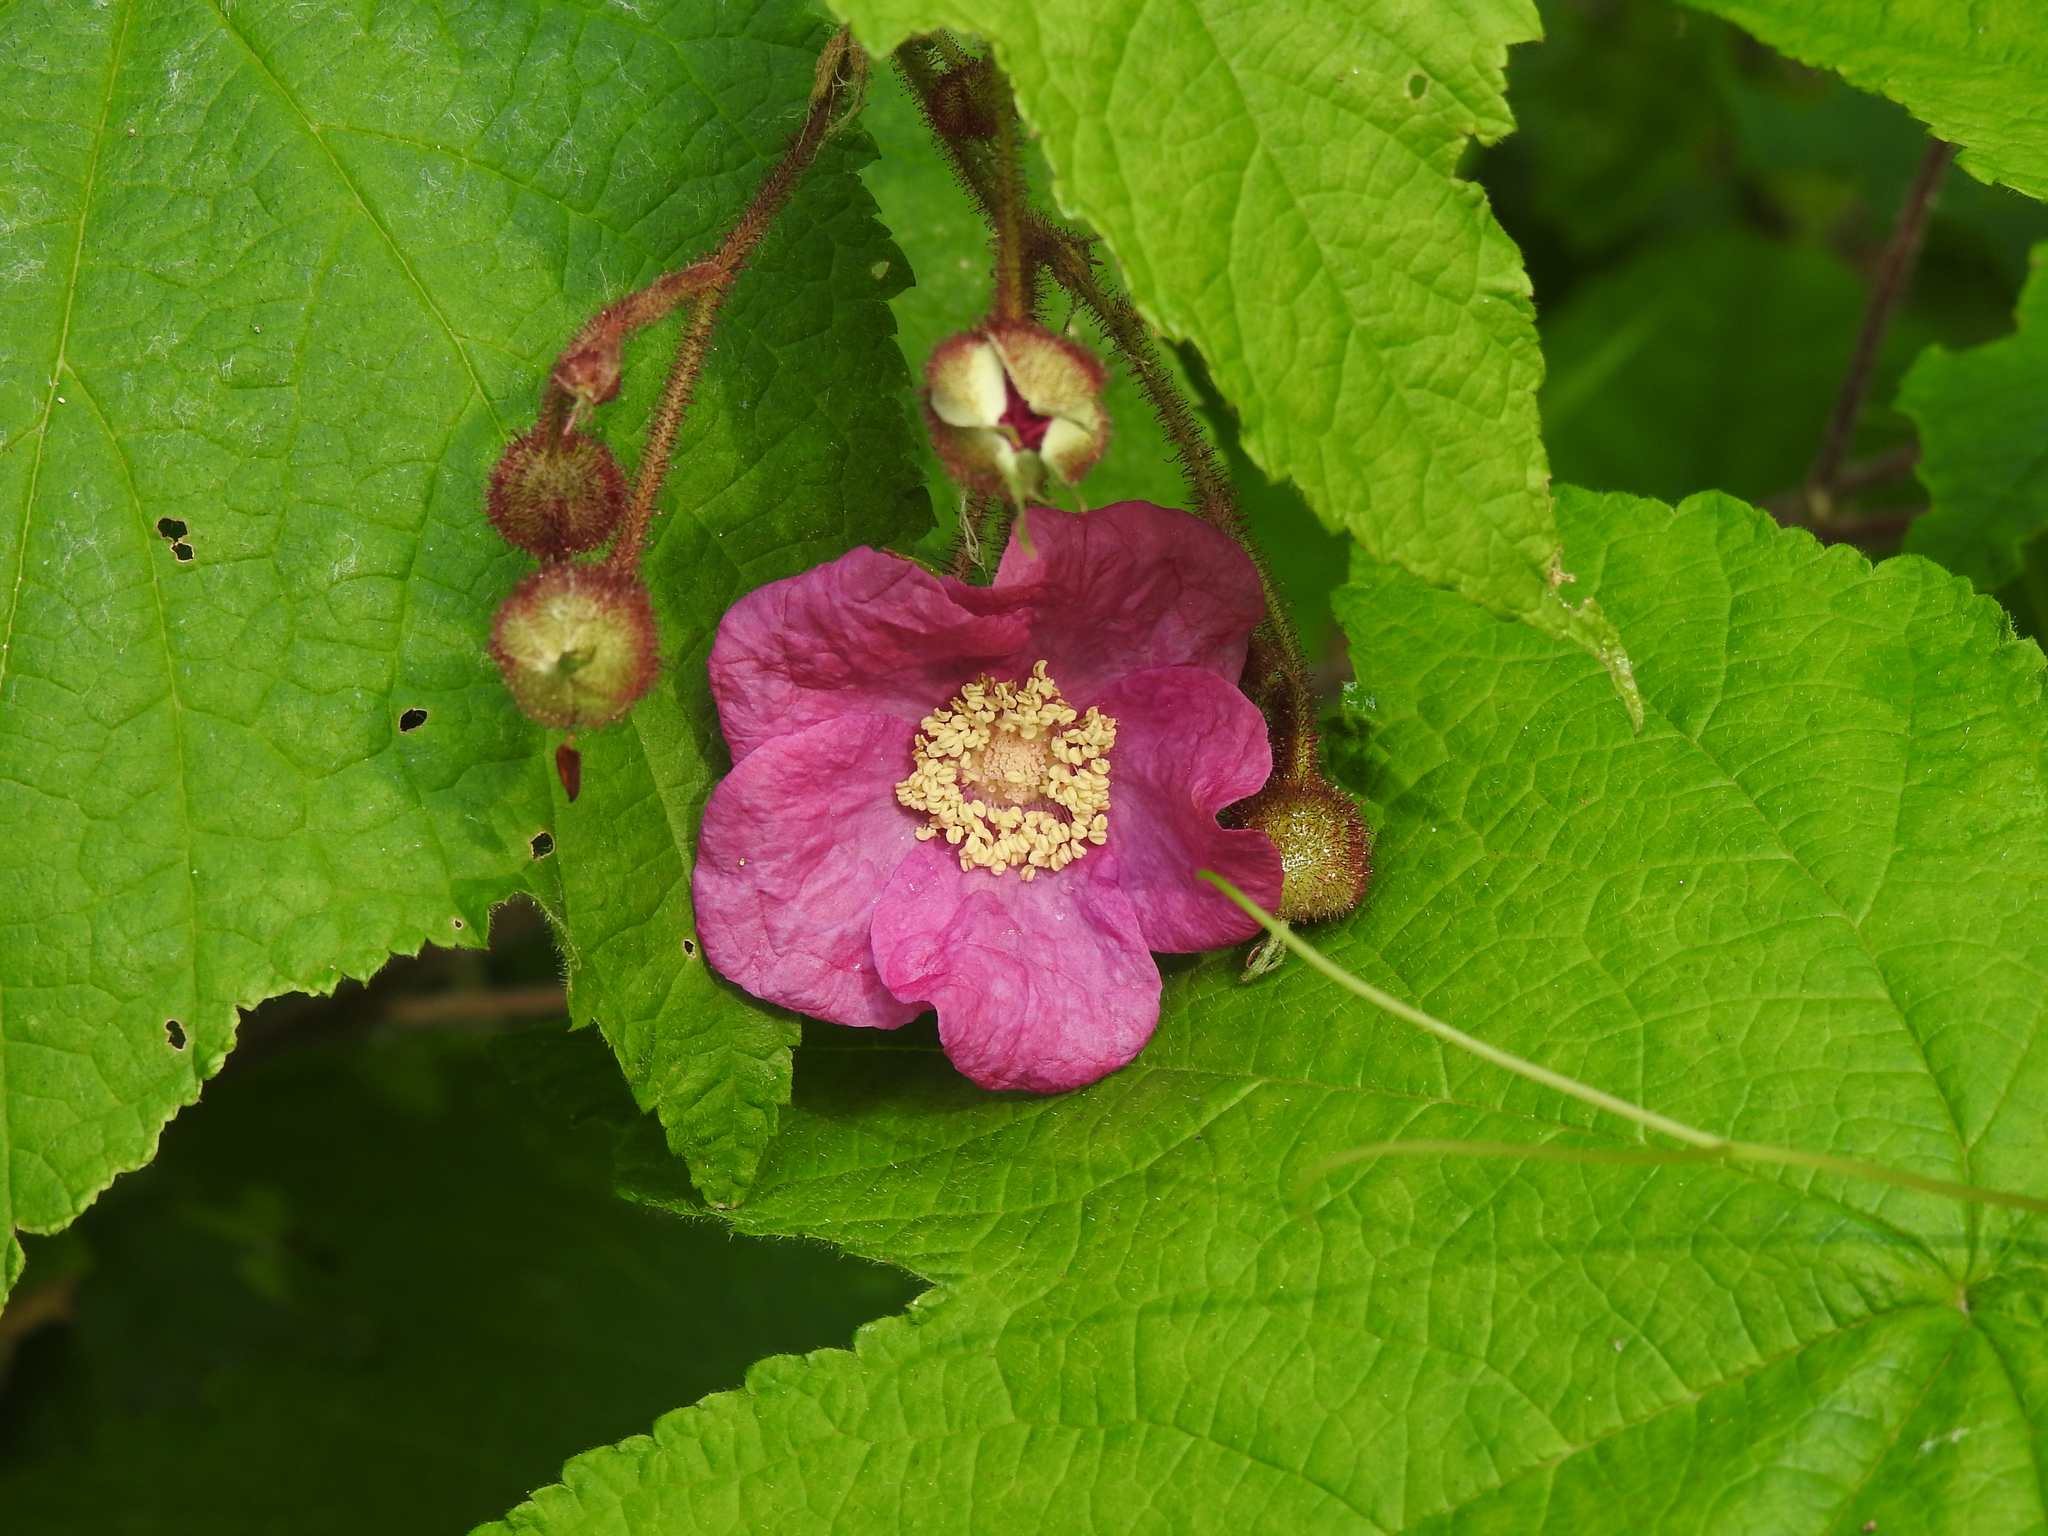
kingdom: Plantae
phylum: Tracheophyta
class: Magnoliopsida
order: Rosales
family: Rosaceae
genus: Rubus
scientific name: Rubus odoratus
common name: Purple-flowered raspberry
